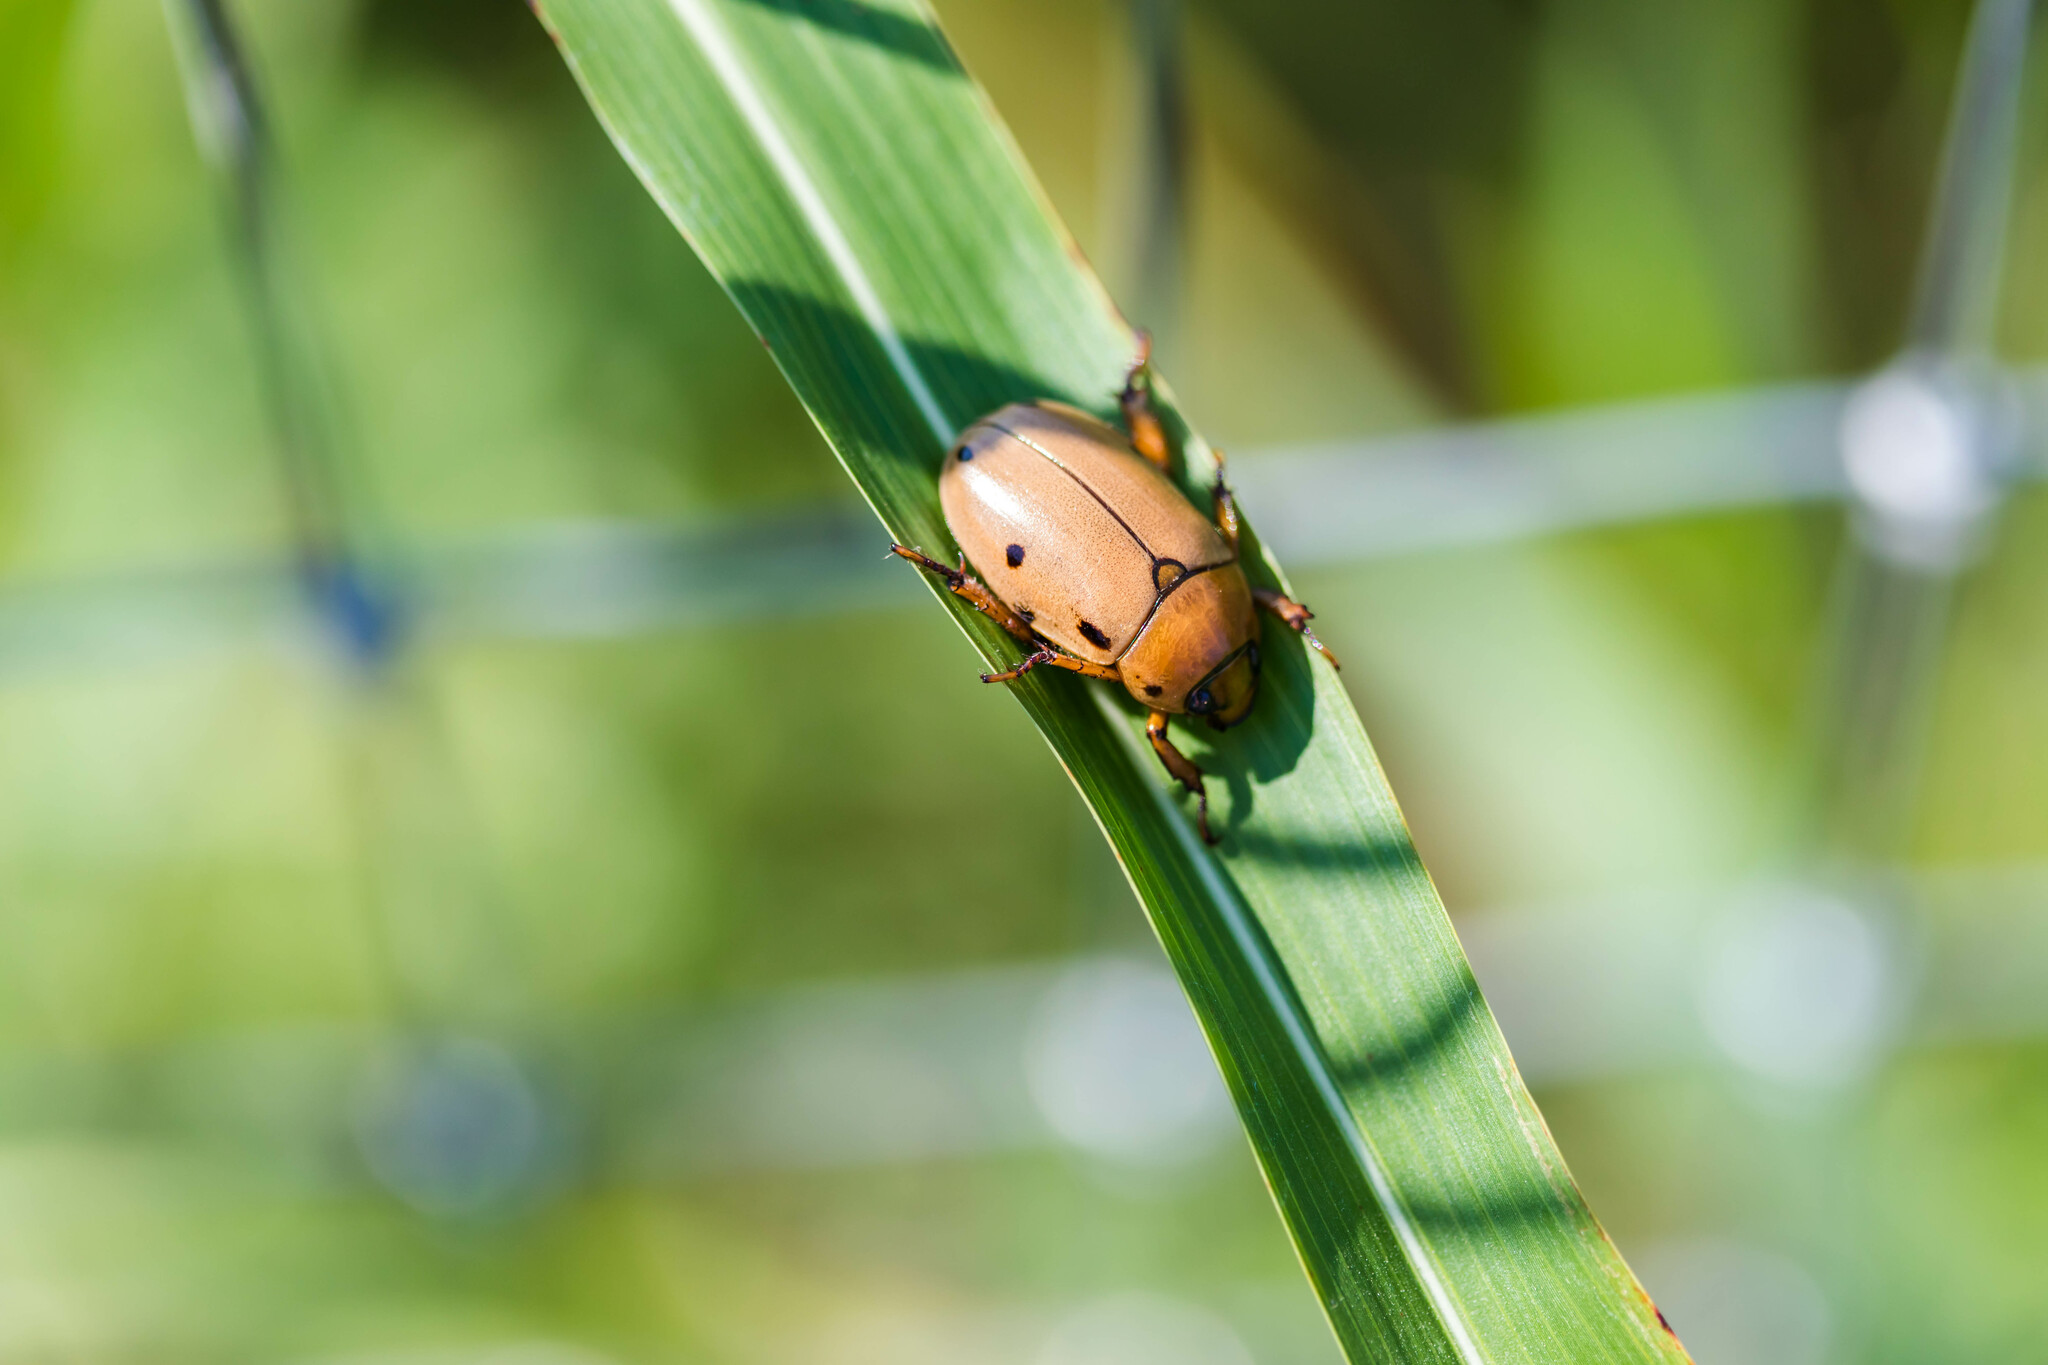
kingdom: Animalia
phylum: Arthropoda
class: Insecta
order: Coleoptera
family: Scarabaeidae
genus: Pelidnota
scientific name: Pelidnota punctata
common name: Grapevine beetle
